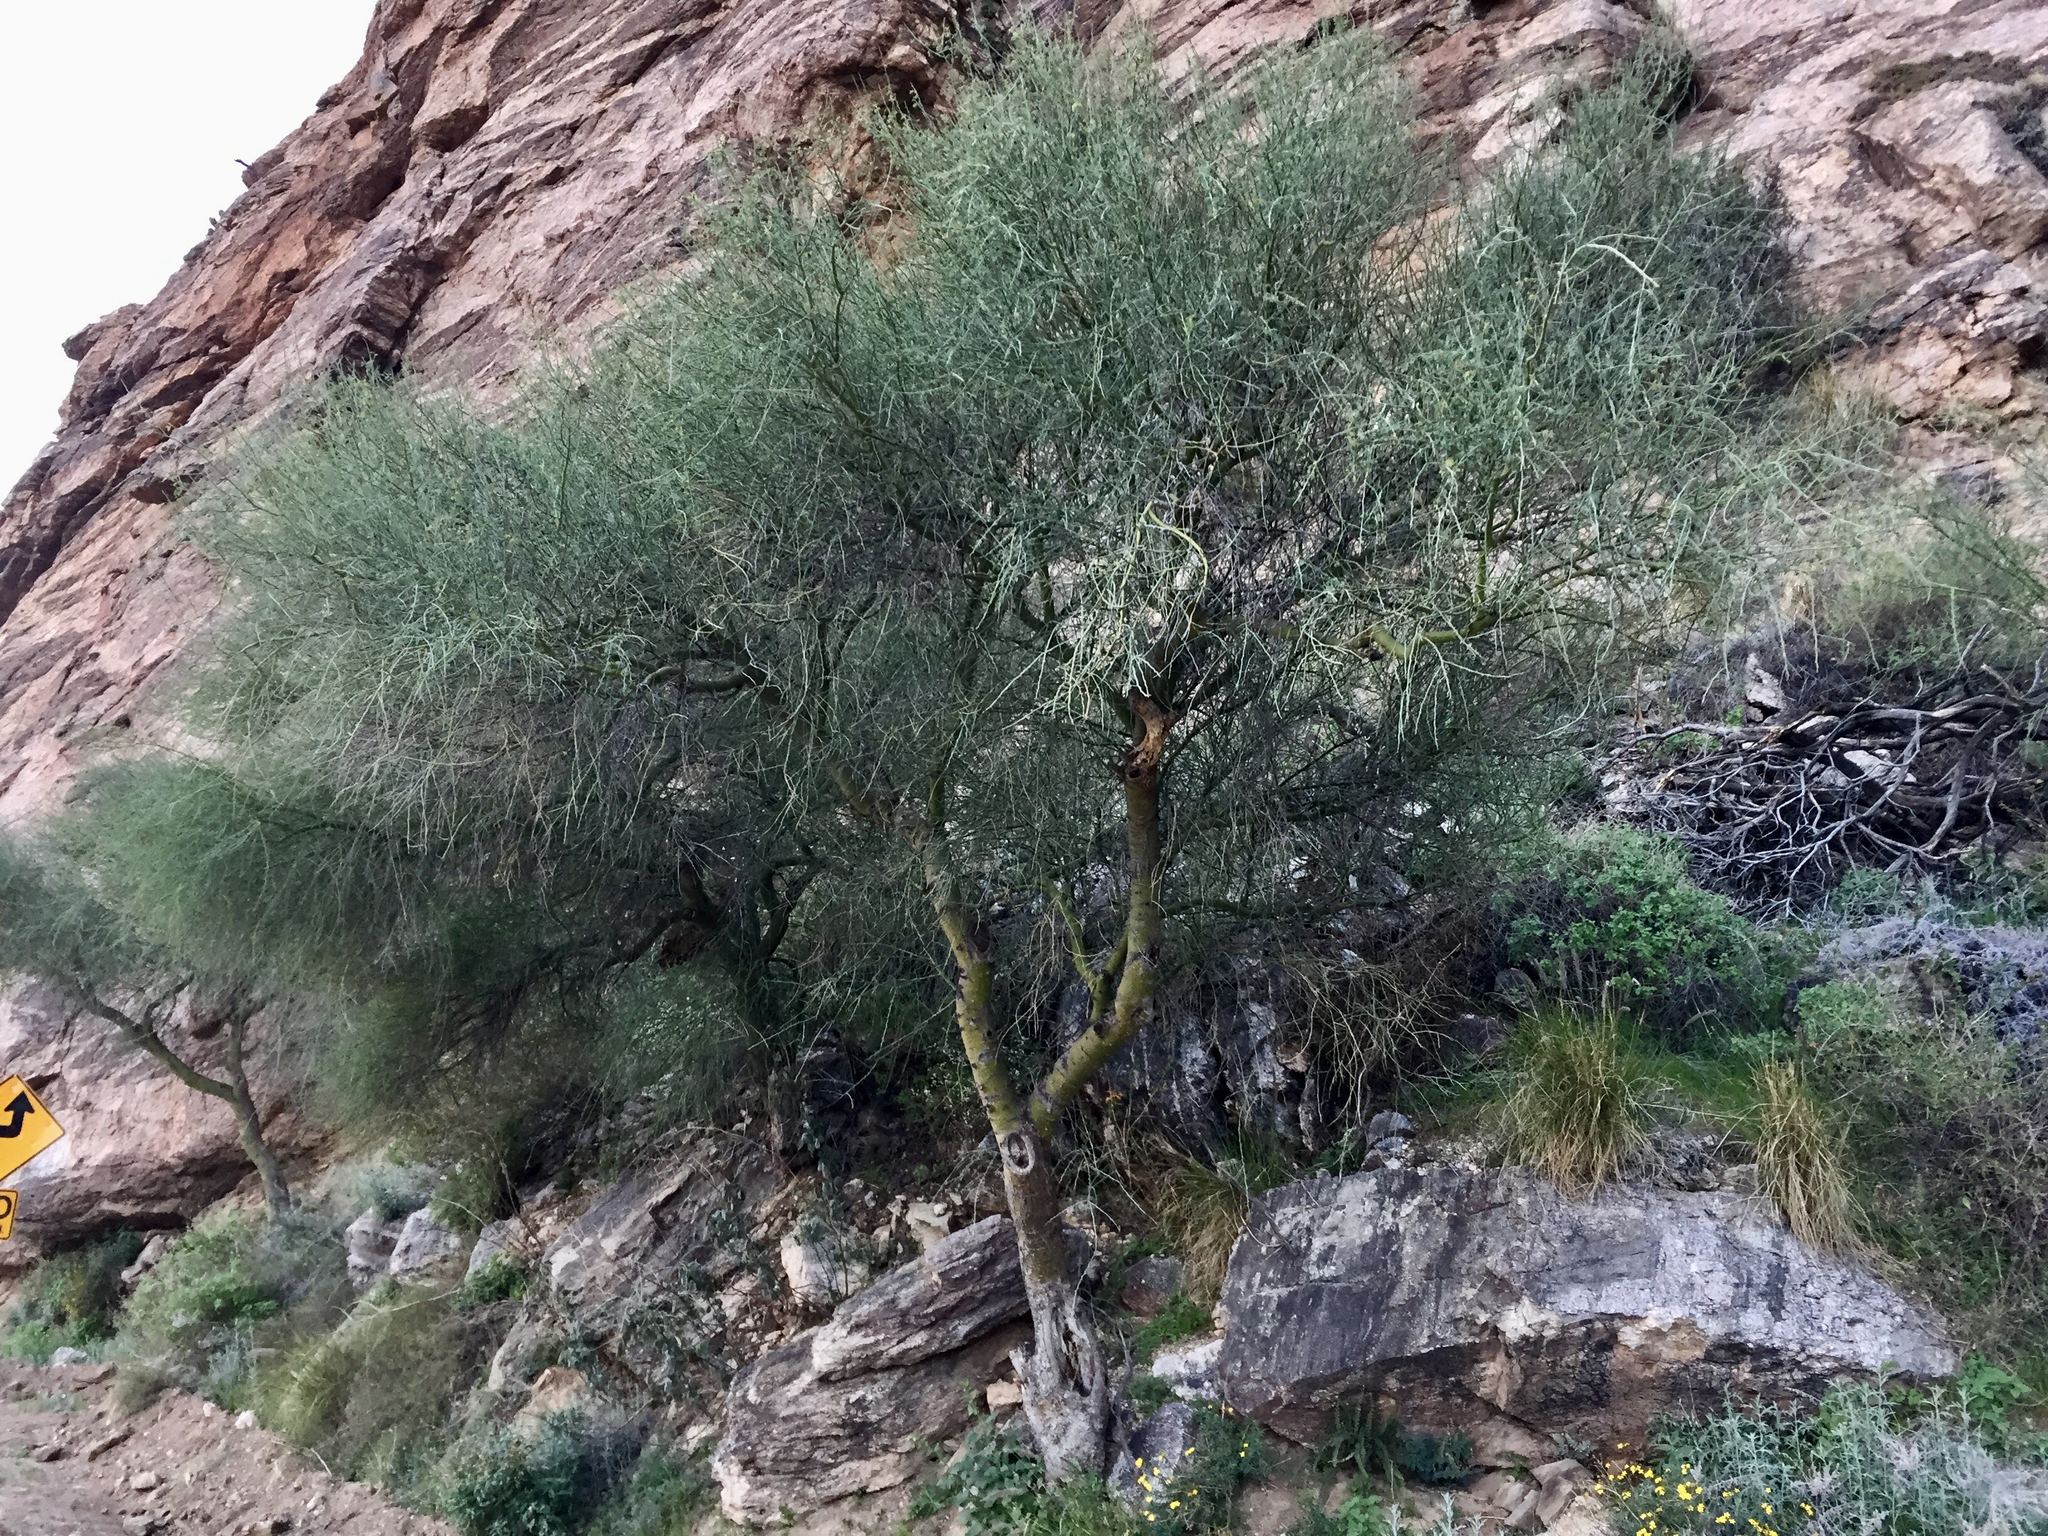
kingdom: Plantae
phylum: Tracheophyta
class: Magnoliopsida
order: Fabales
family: Fabaceae
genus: Parkinsonia
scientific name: Parkinsonia florida
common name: Blue paloverde
